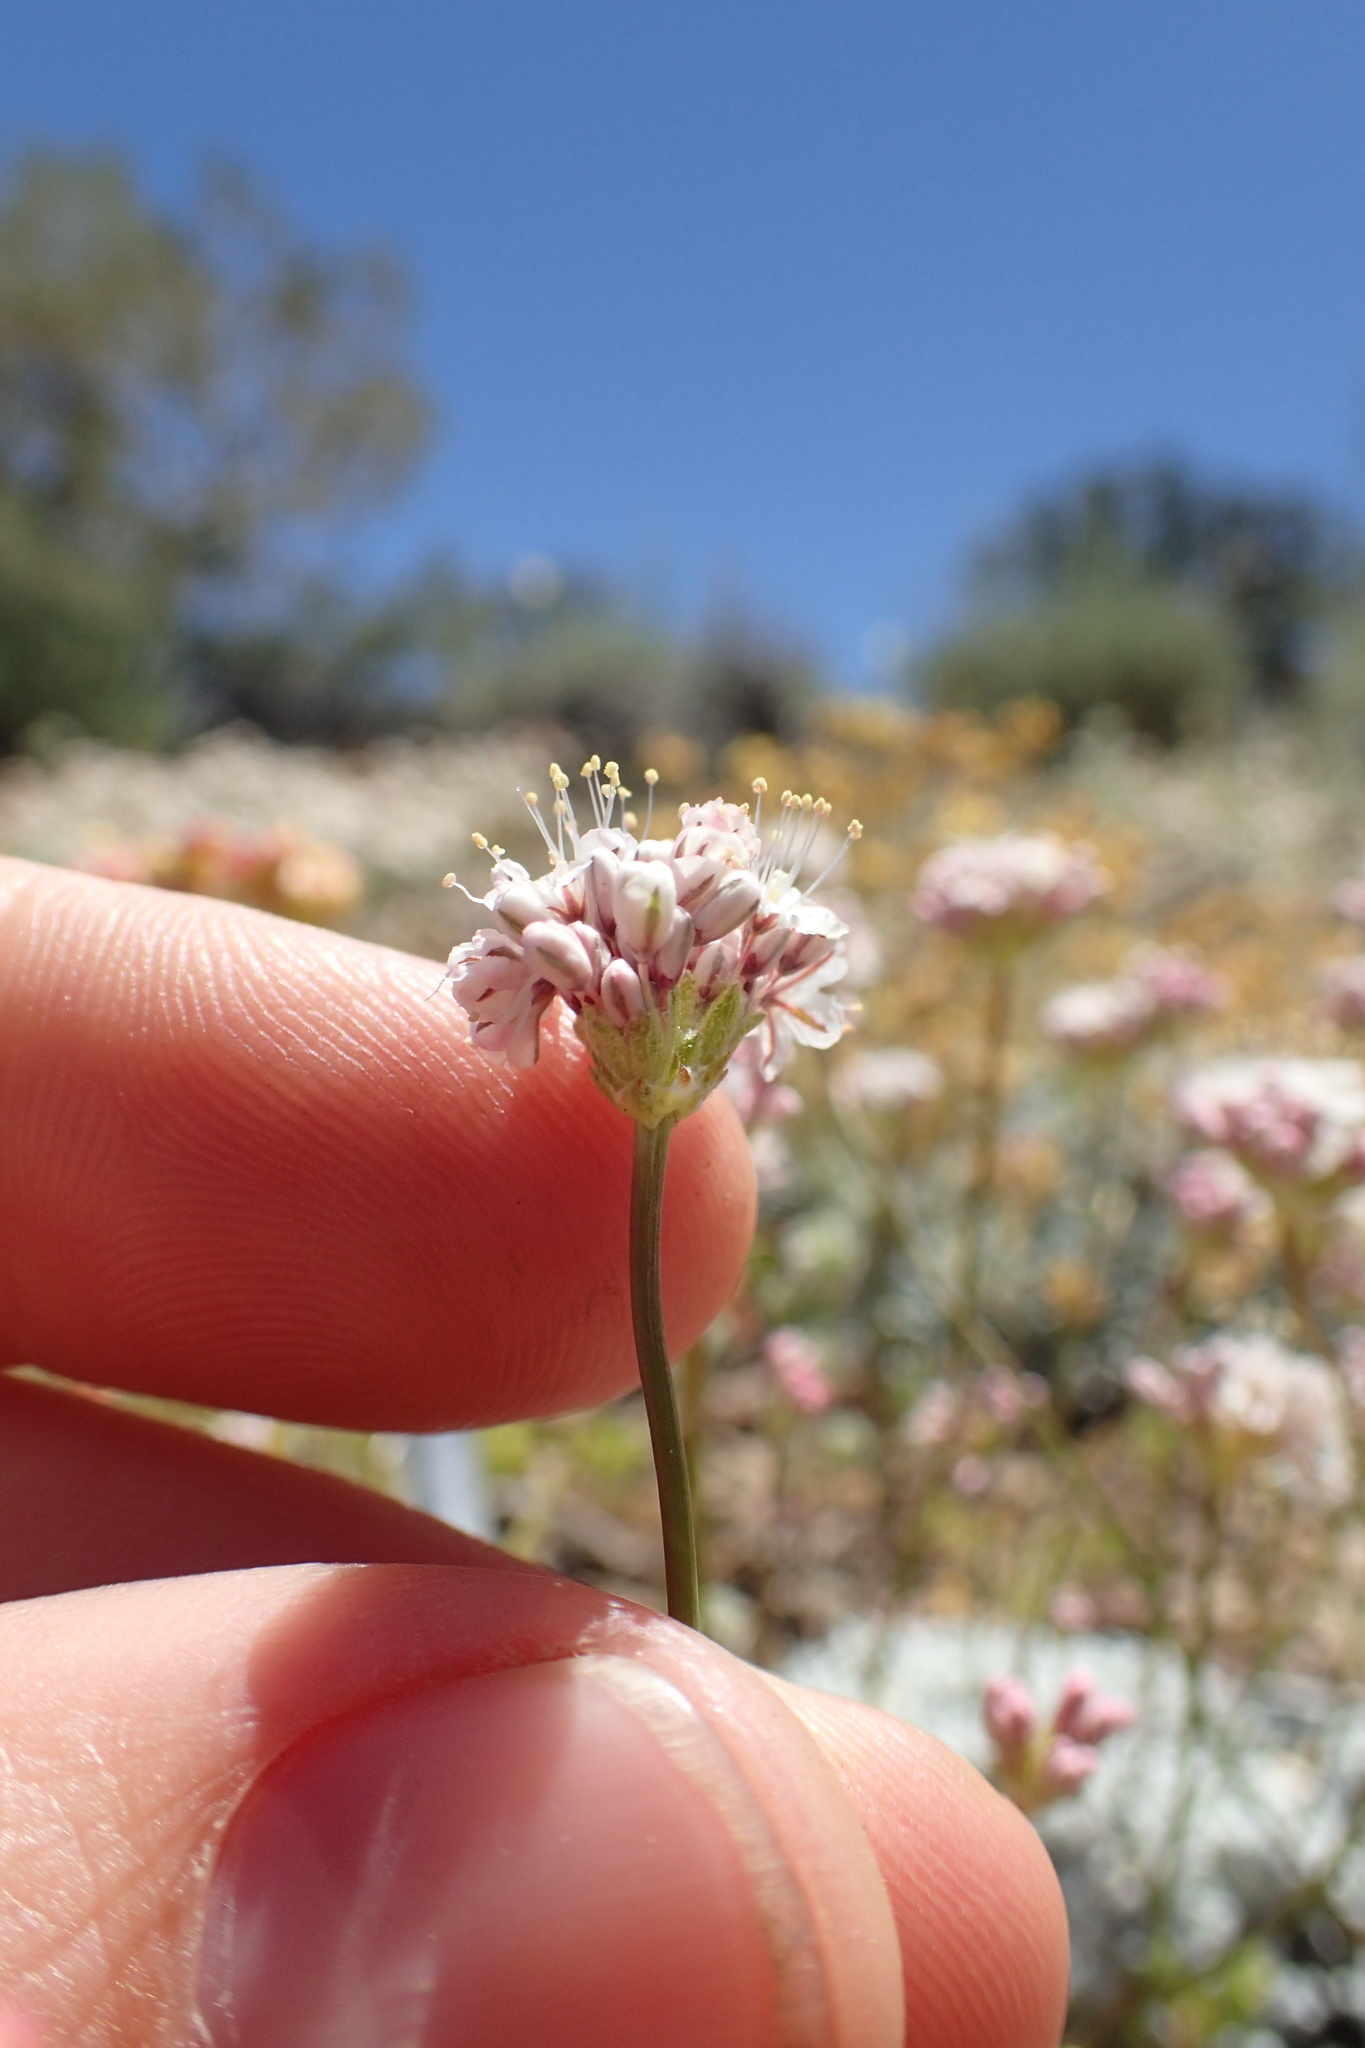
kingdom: Plantae
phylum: Tracheophyta
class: Magnoliopsida
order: Caryophyllales
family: Polygonaceae
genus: Eriogonum
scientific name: Eriogonum kennedyi
